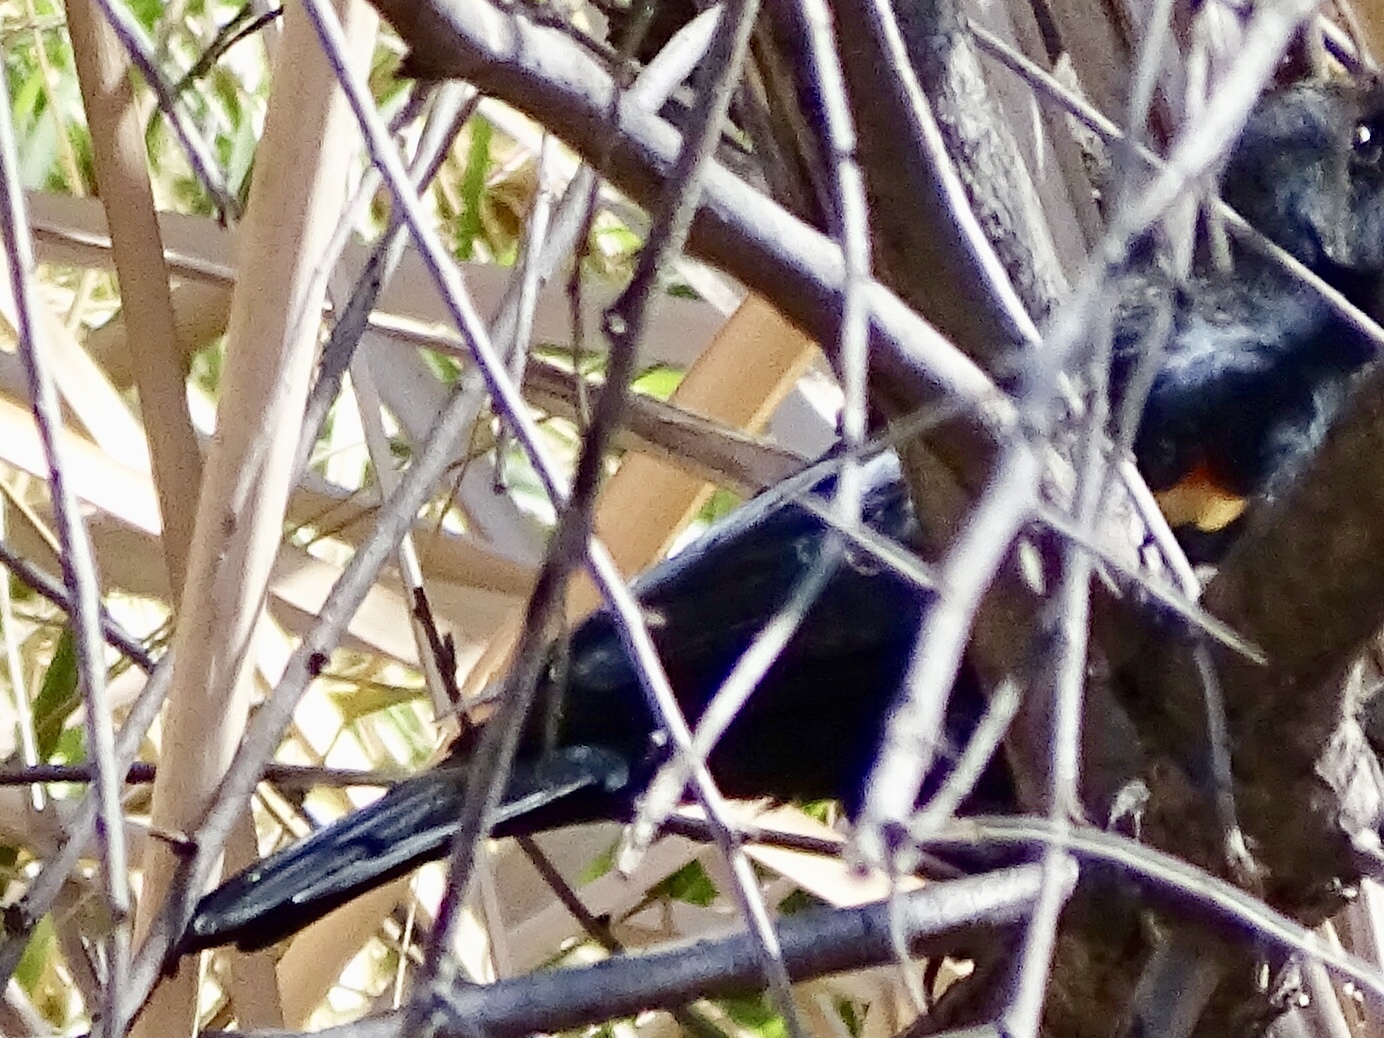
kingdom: Animalia
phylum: Chordata
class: Aves
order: Passeriformes
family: Icteridae
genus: Agelaius
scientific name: Agelaius phoeniceus
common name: Red-winged blackbird
